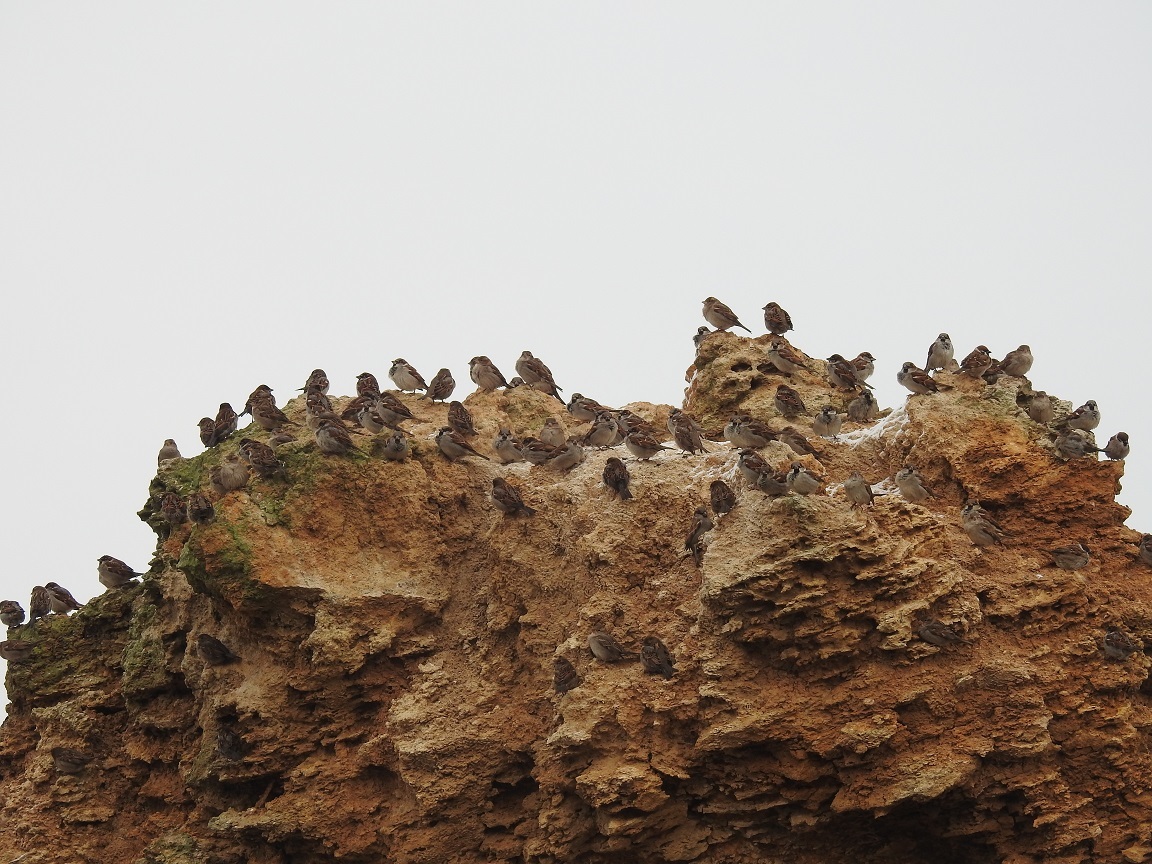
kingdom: Animalia
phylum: Chordata
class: Aves
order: Passeriformes
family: Passeridae
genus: Passer
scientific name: Passer domesticus
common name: House sparrow
